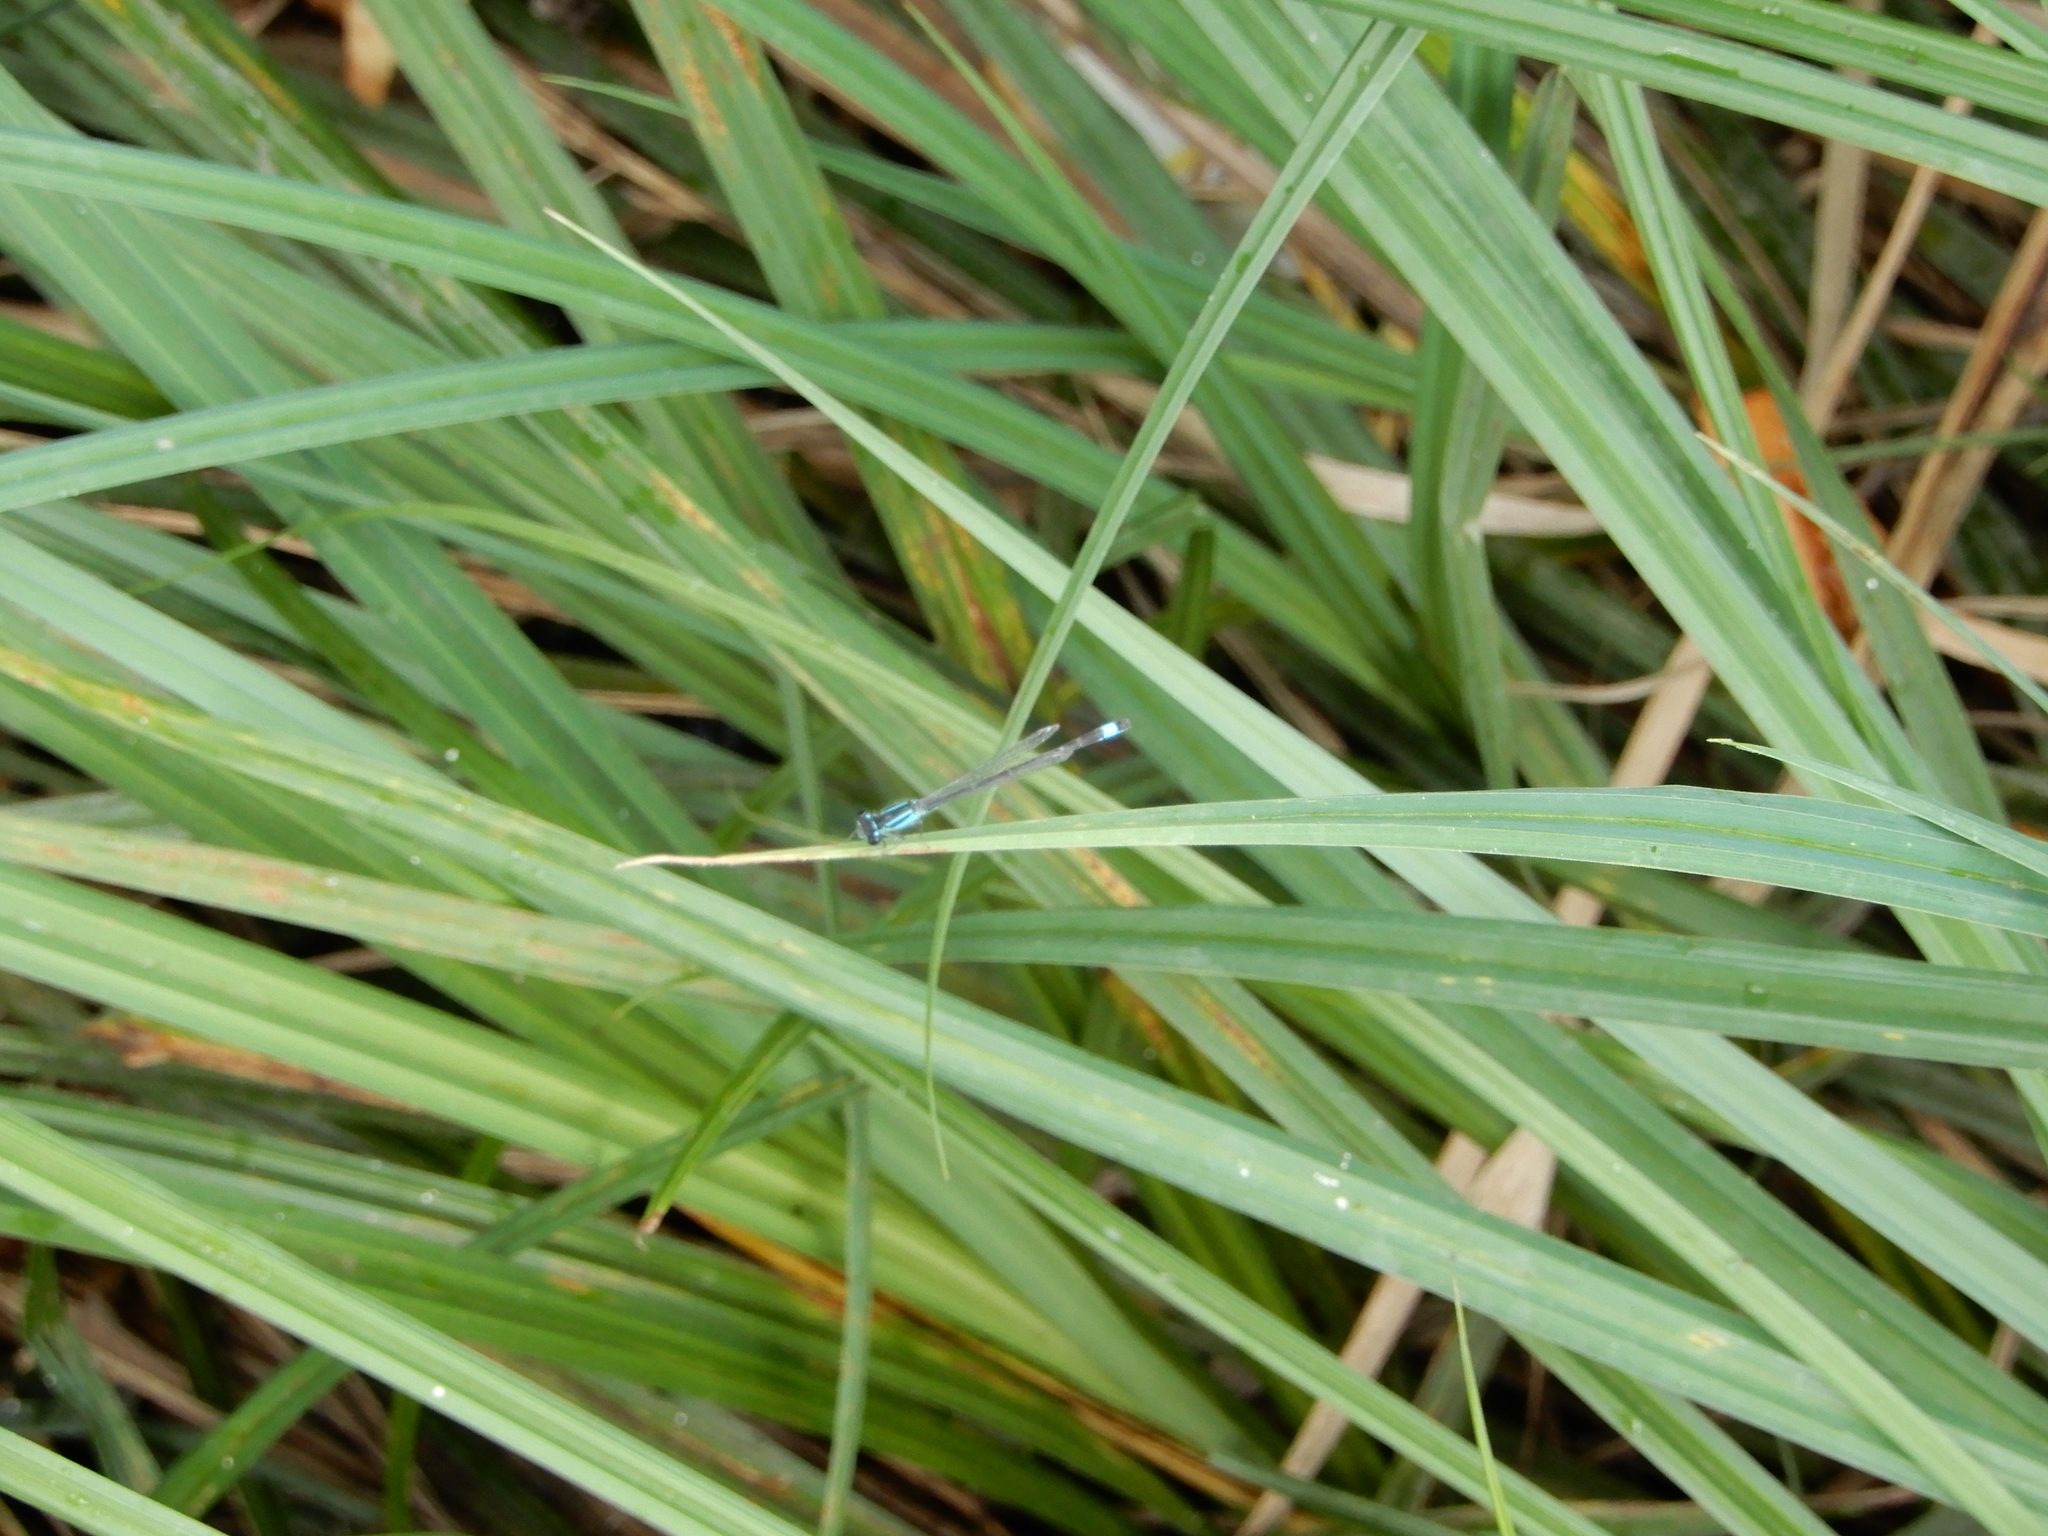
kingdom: Animalia
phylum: Arthropoda
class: Insecta
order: Odonata
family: Coenagrionidae
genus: Ischnura
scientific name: Ischnura elegans
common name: Blue-tailed damselfly
